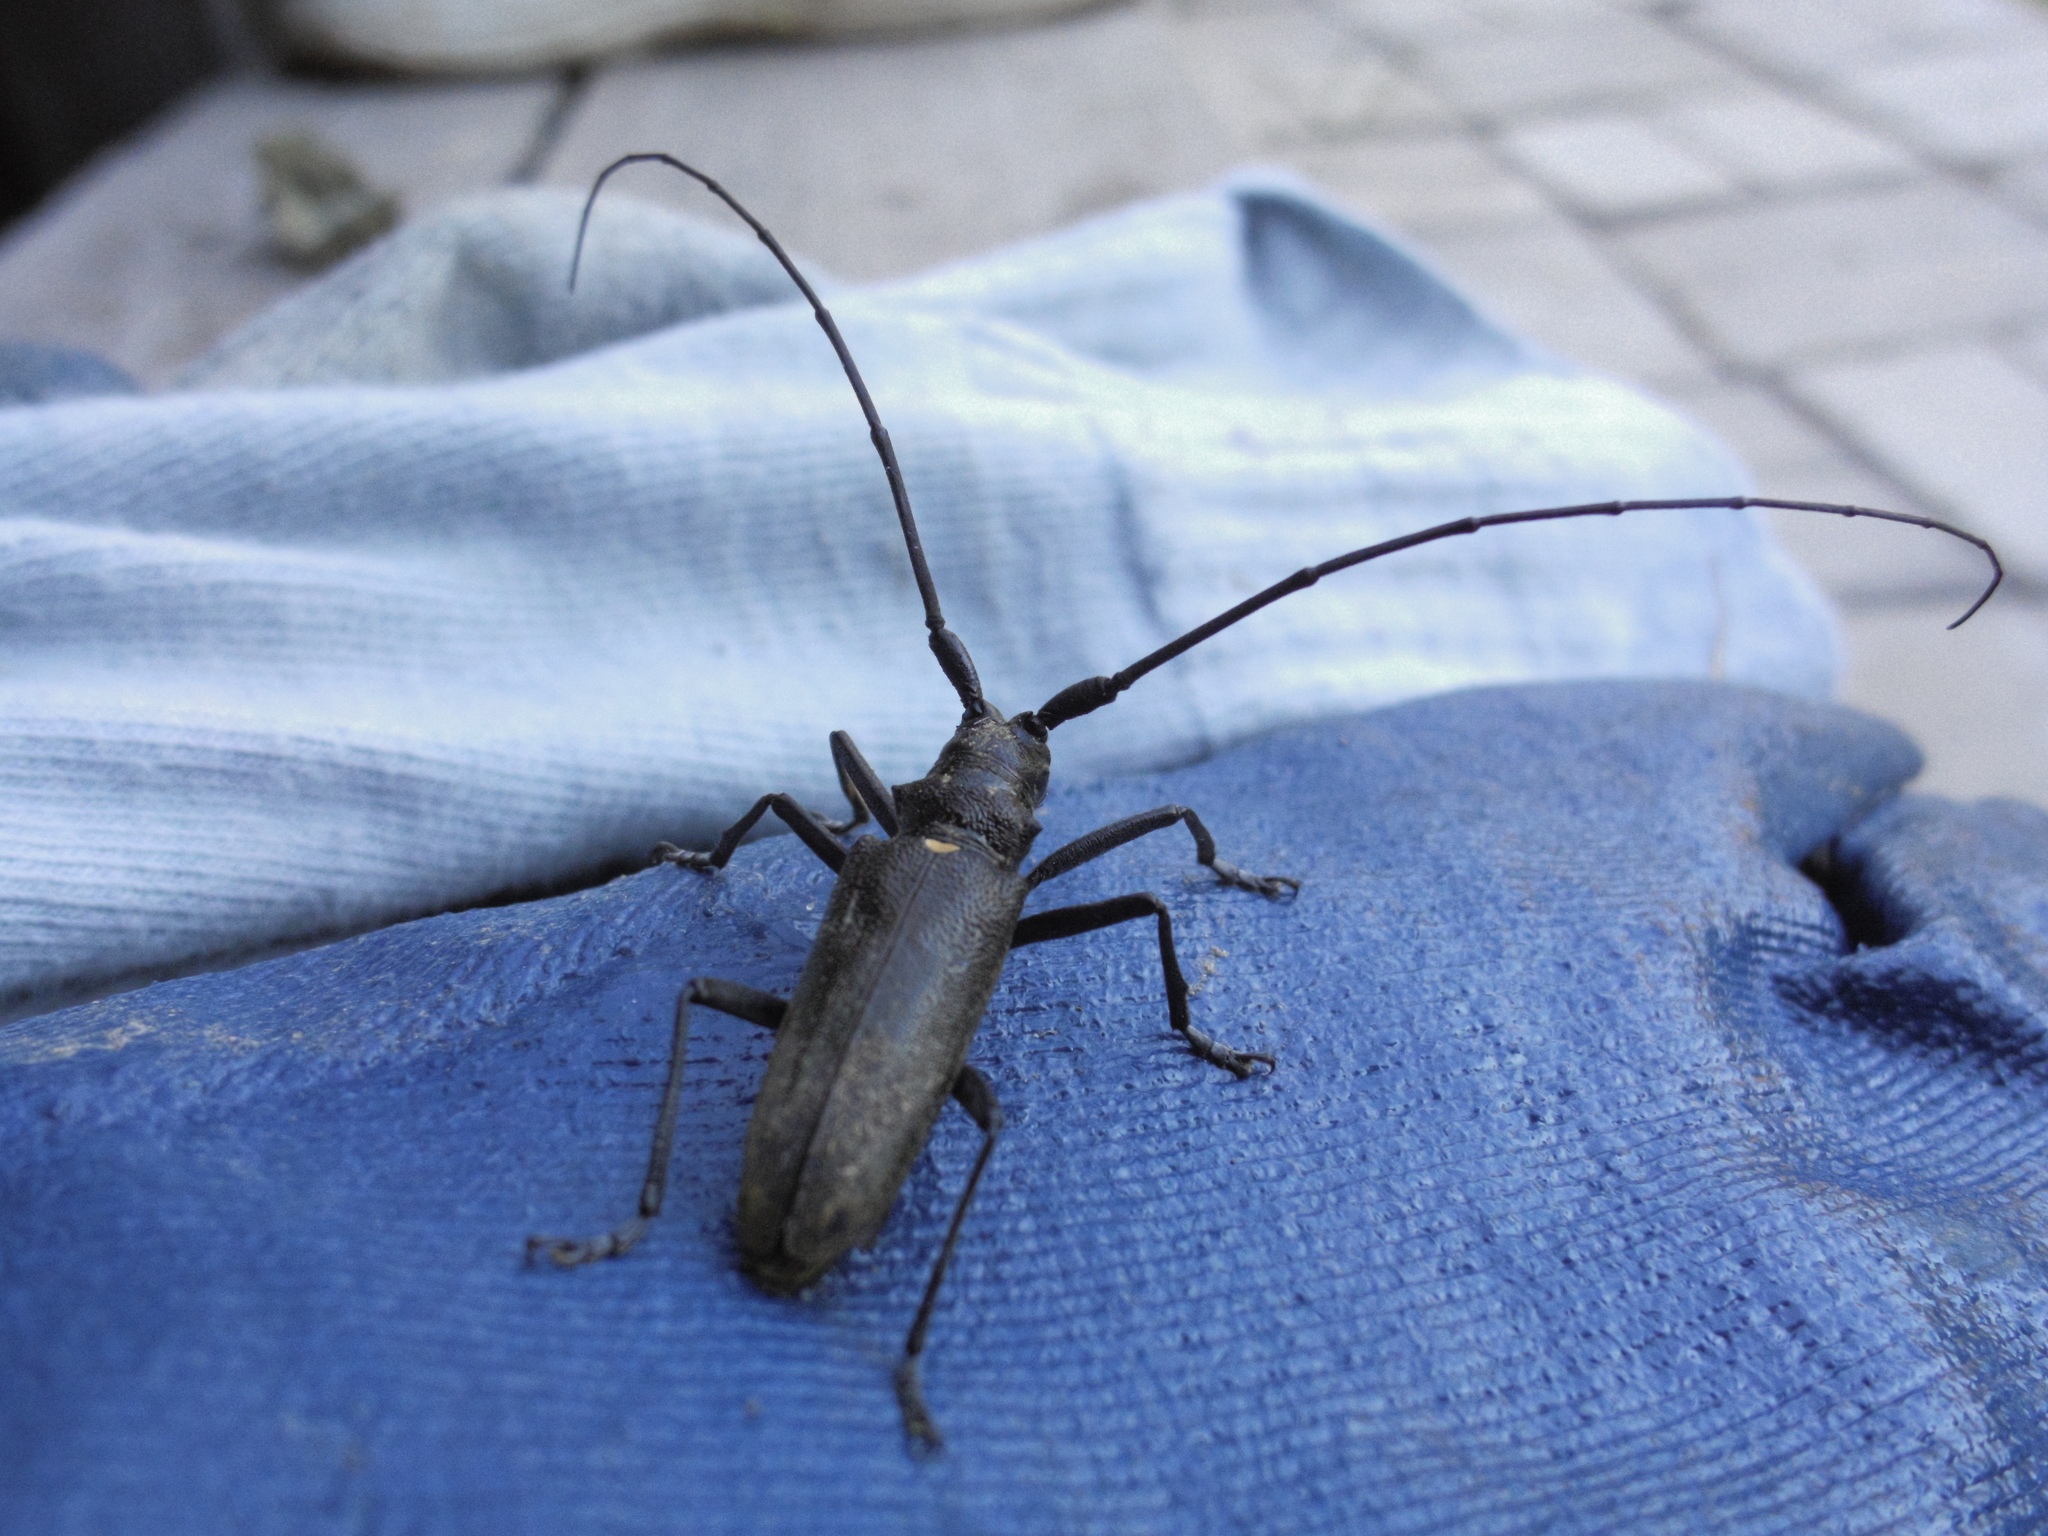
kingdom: Animalia
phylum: Arthropoda
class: Insecta
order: Coleoptera
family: Cerambycidae
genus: Monochamus
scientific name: Monochamus sartor
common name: Pine sawyer
